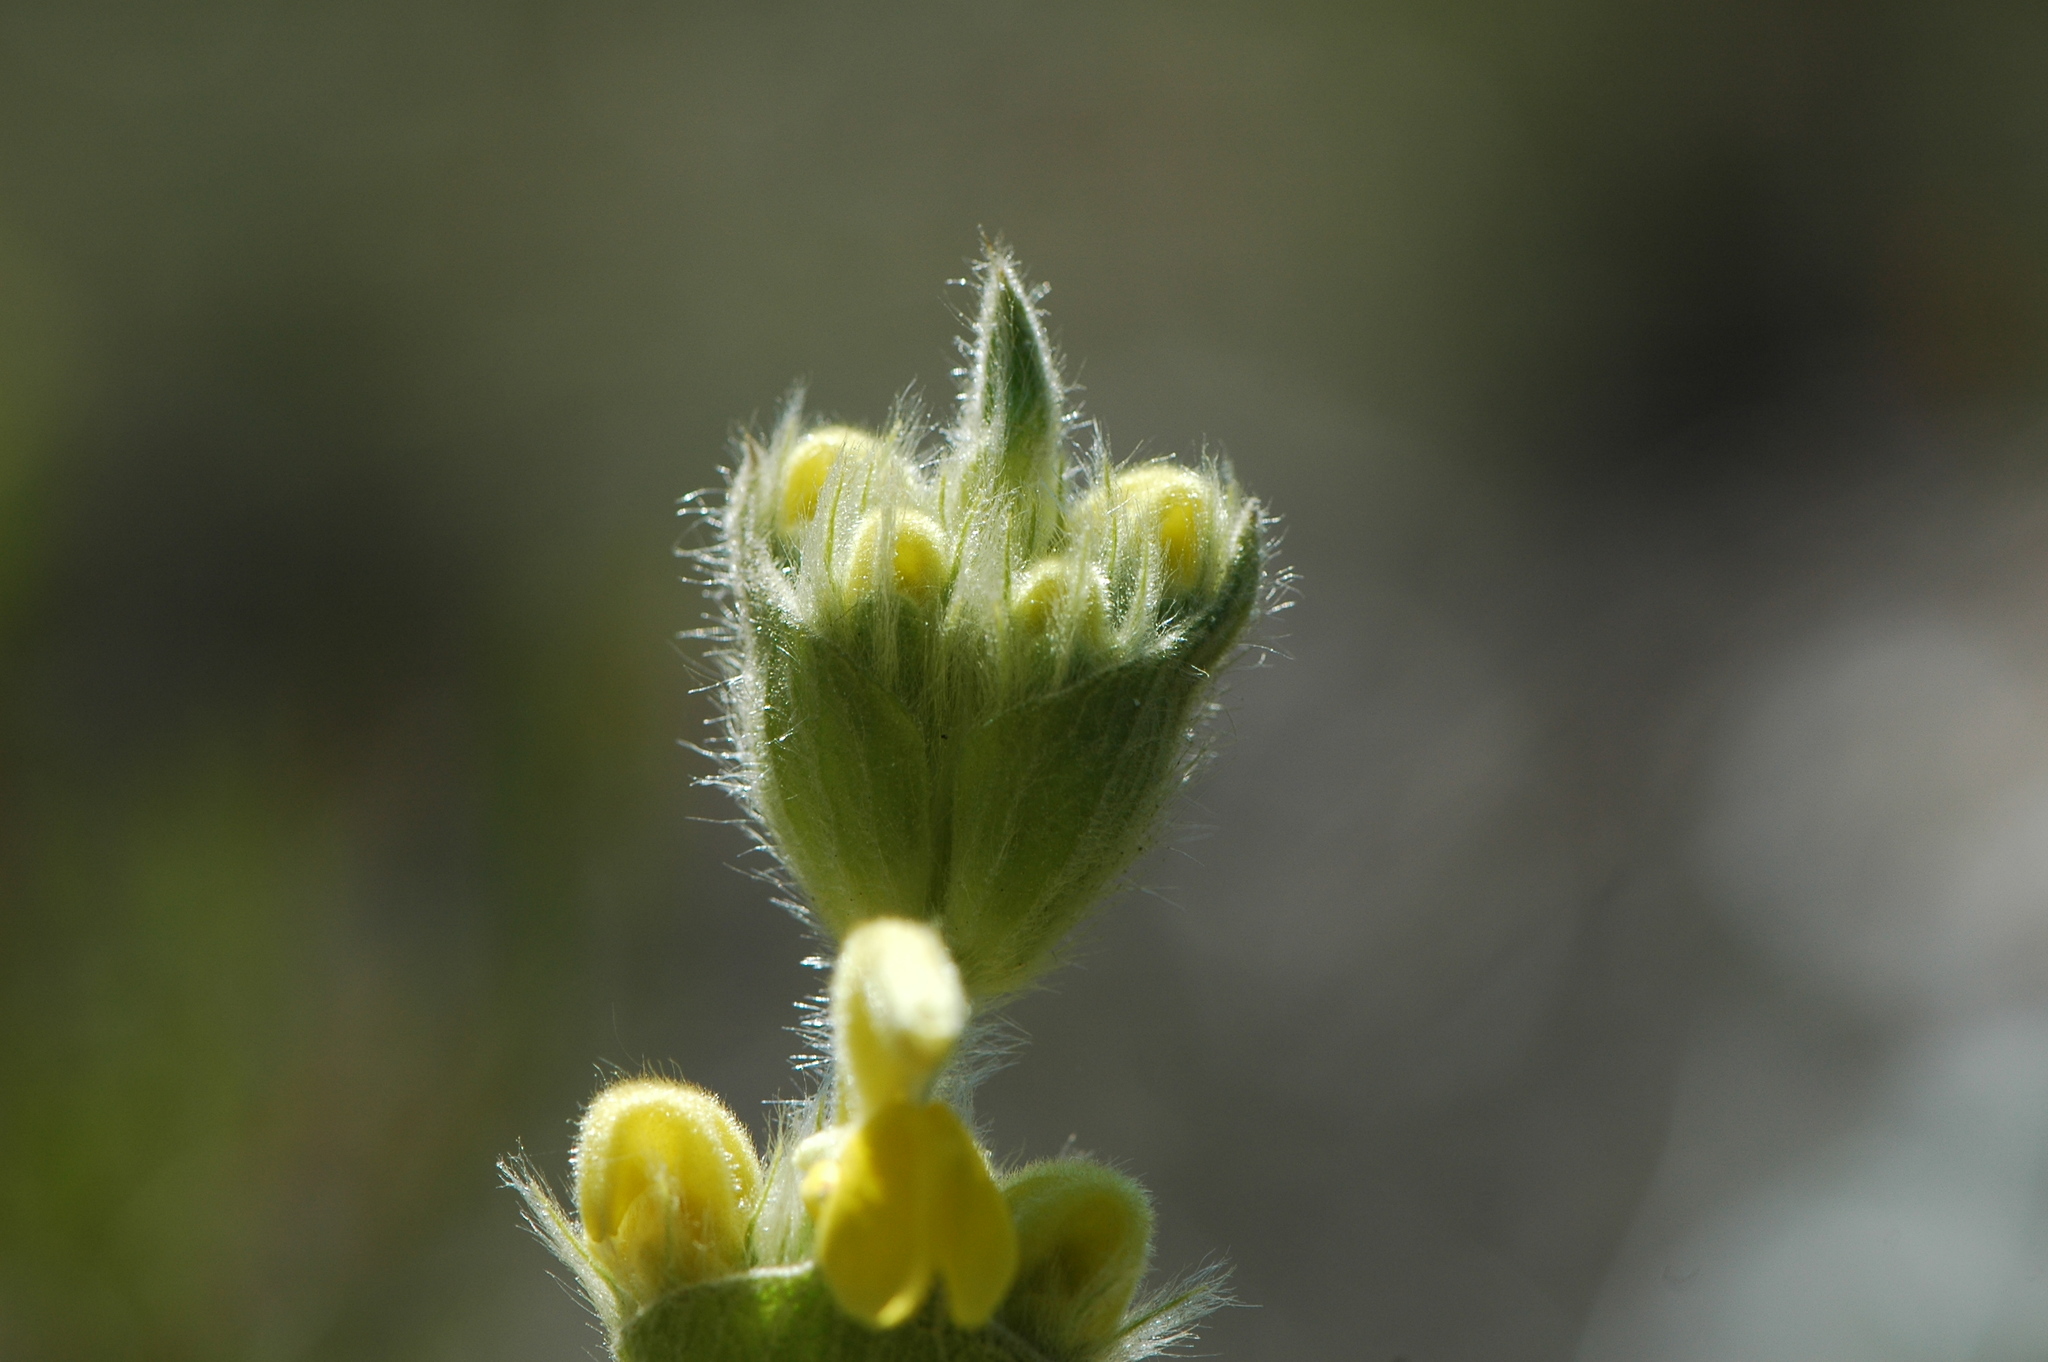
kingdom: Plantae
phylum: Tracheophyta
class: Magnoliopsida
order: Lamiales
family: Lamiaceae
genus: Phlomis
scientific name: Phlomis lychnitis
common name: Lampwickplant
